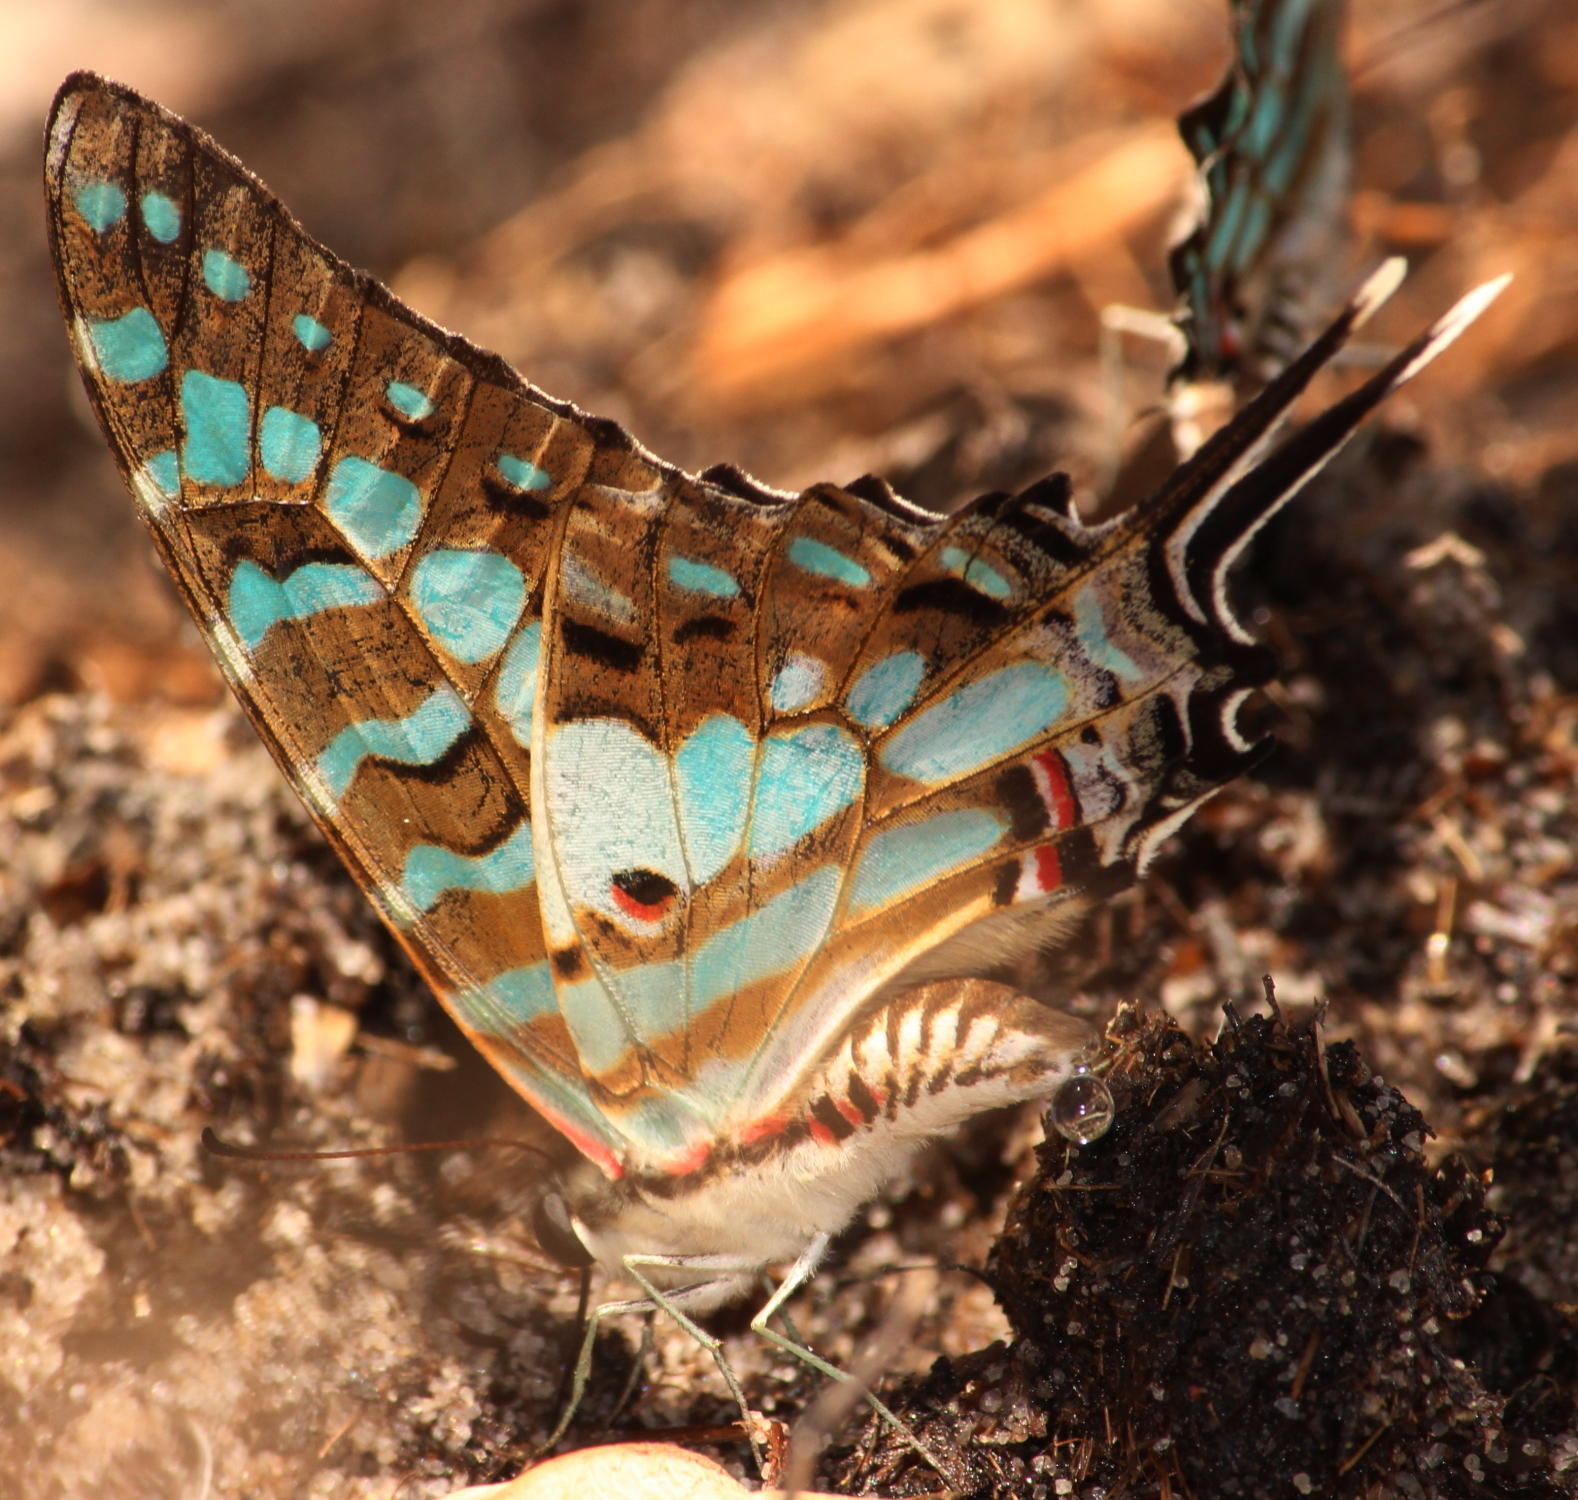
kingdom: Animalia
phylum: Arthropoda
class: Insecta
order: Lepidoptera
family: Papilionidae
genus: Graphium
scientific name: Graphium antheus
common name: Large striped swordtail
